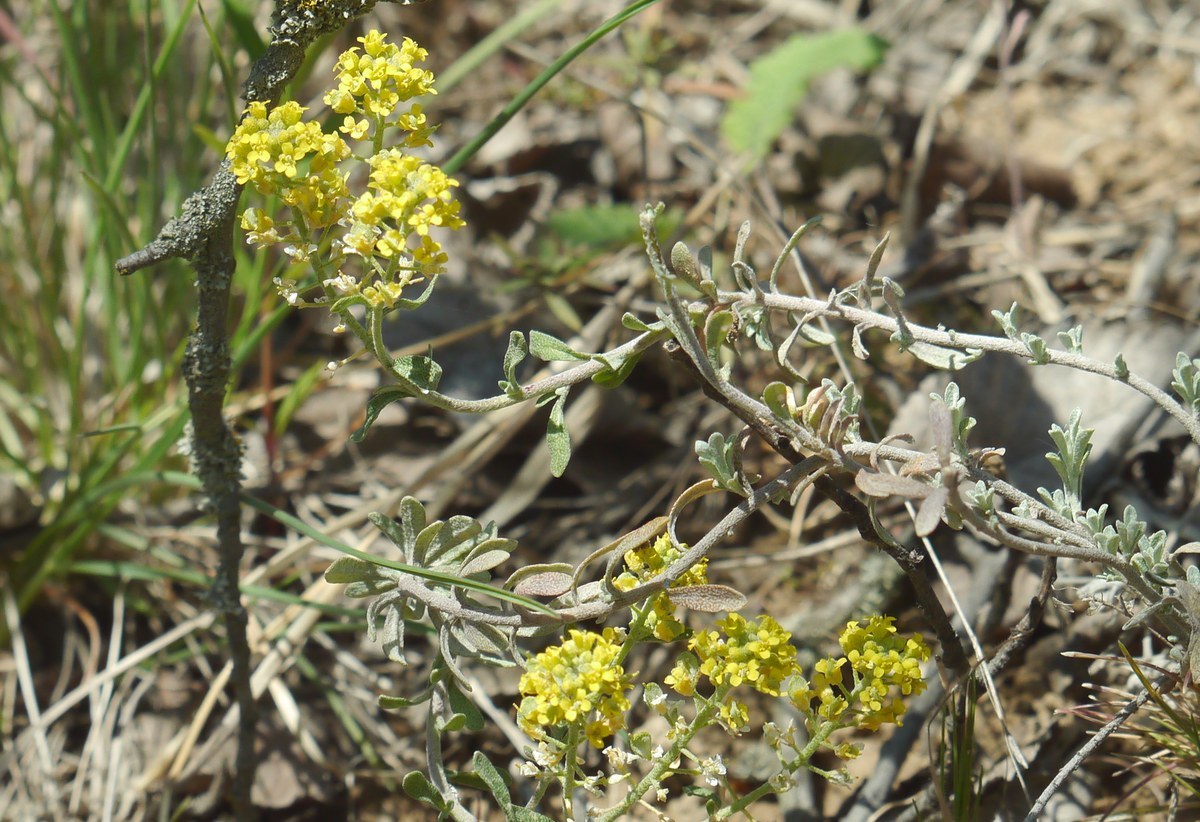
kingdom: Plantae
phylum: Tracheophyta
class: Magnoliopsida
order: Brassicales
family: Brassicaceae
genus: Odontarrhena
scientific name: Odontarrhena tortuosa
